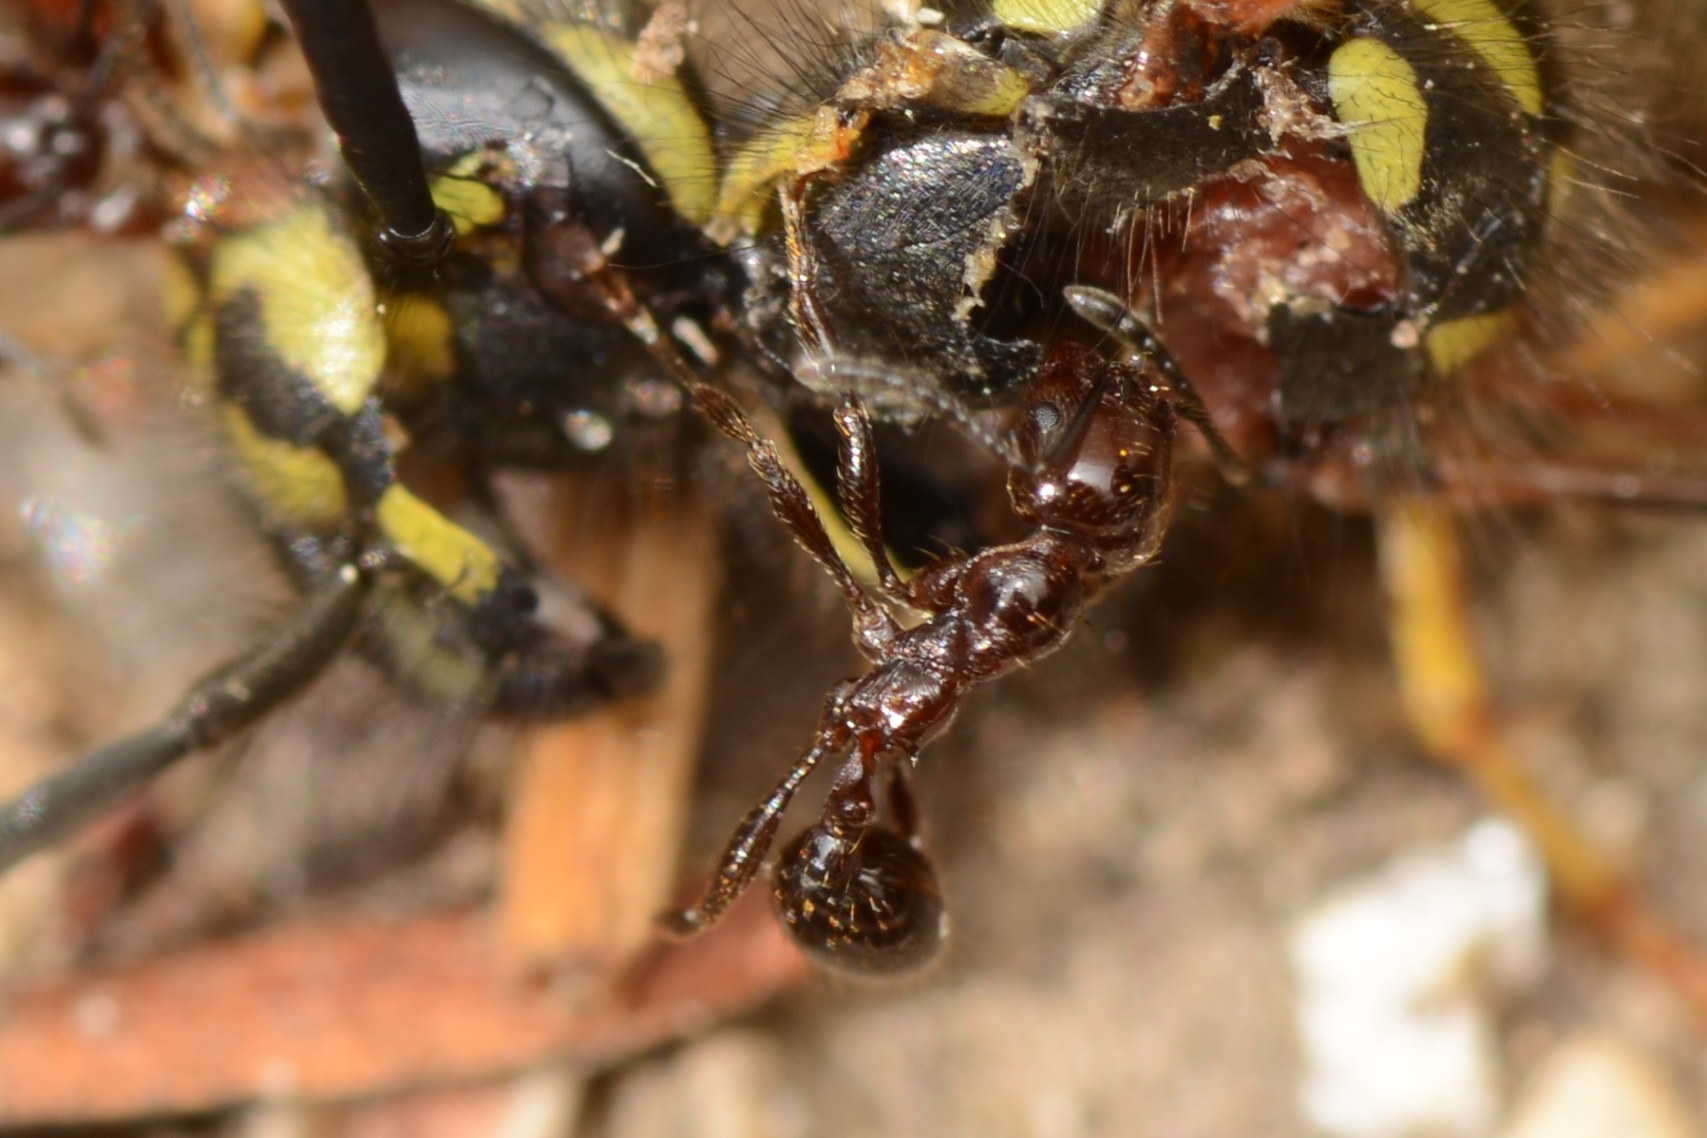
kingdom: Animalia
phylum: Arthropoda
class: Insecta
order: Hymenoptera
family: Formicidae
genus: Huberia
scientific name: Huberia striata
